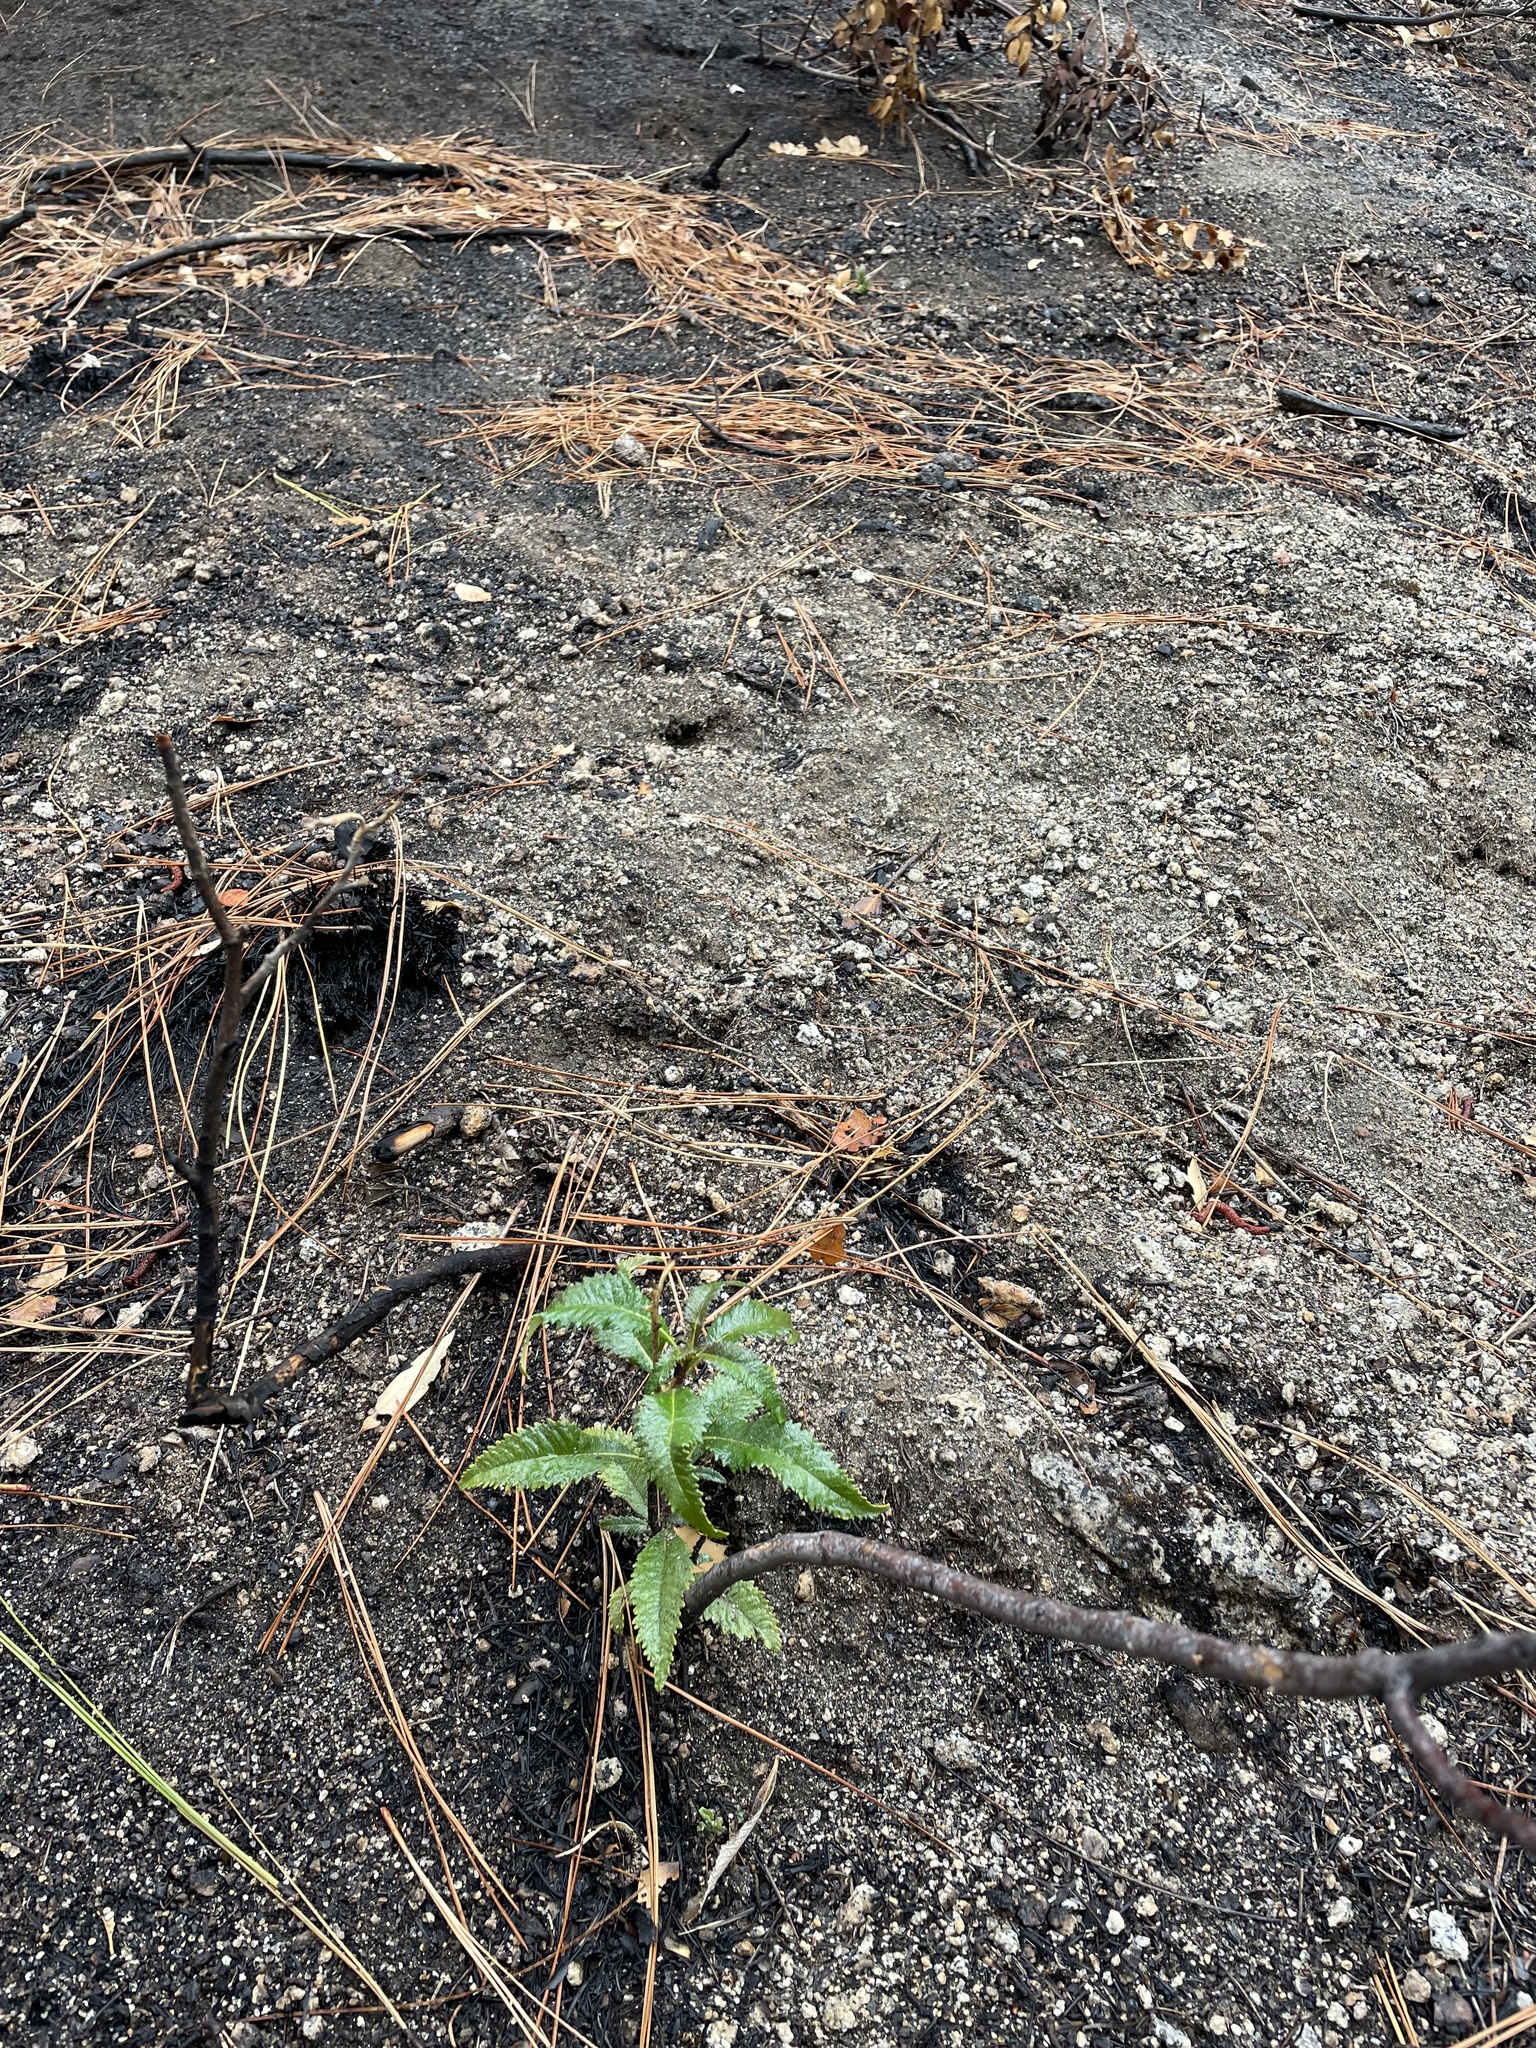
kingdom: Plantae
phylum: Tracheophyta
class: Magnoliopsida
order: Boraginales
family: Namaceae
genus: Eriodictyon
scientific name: Eriodictyon californicum
